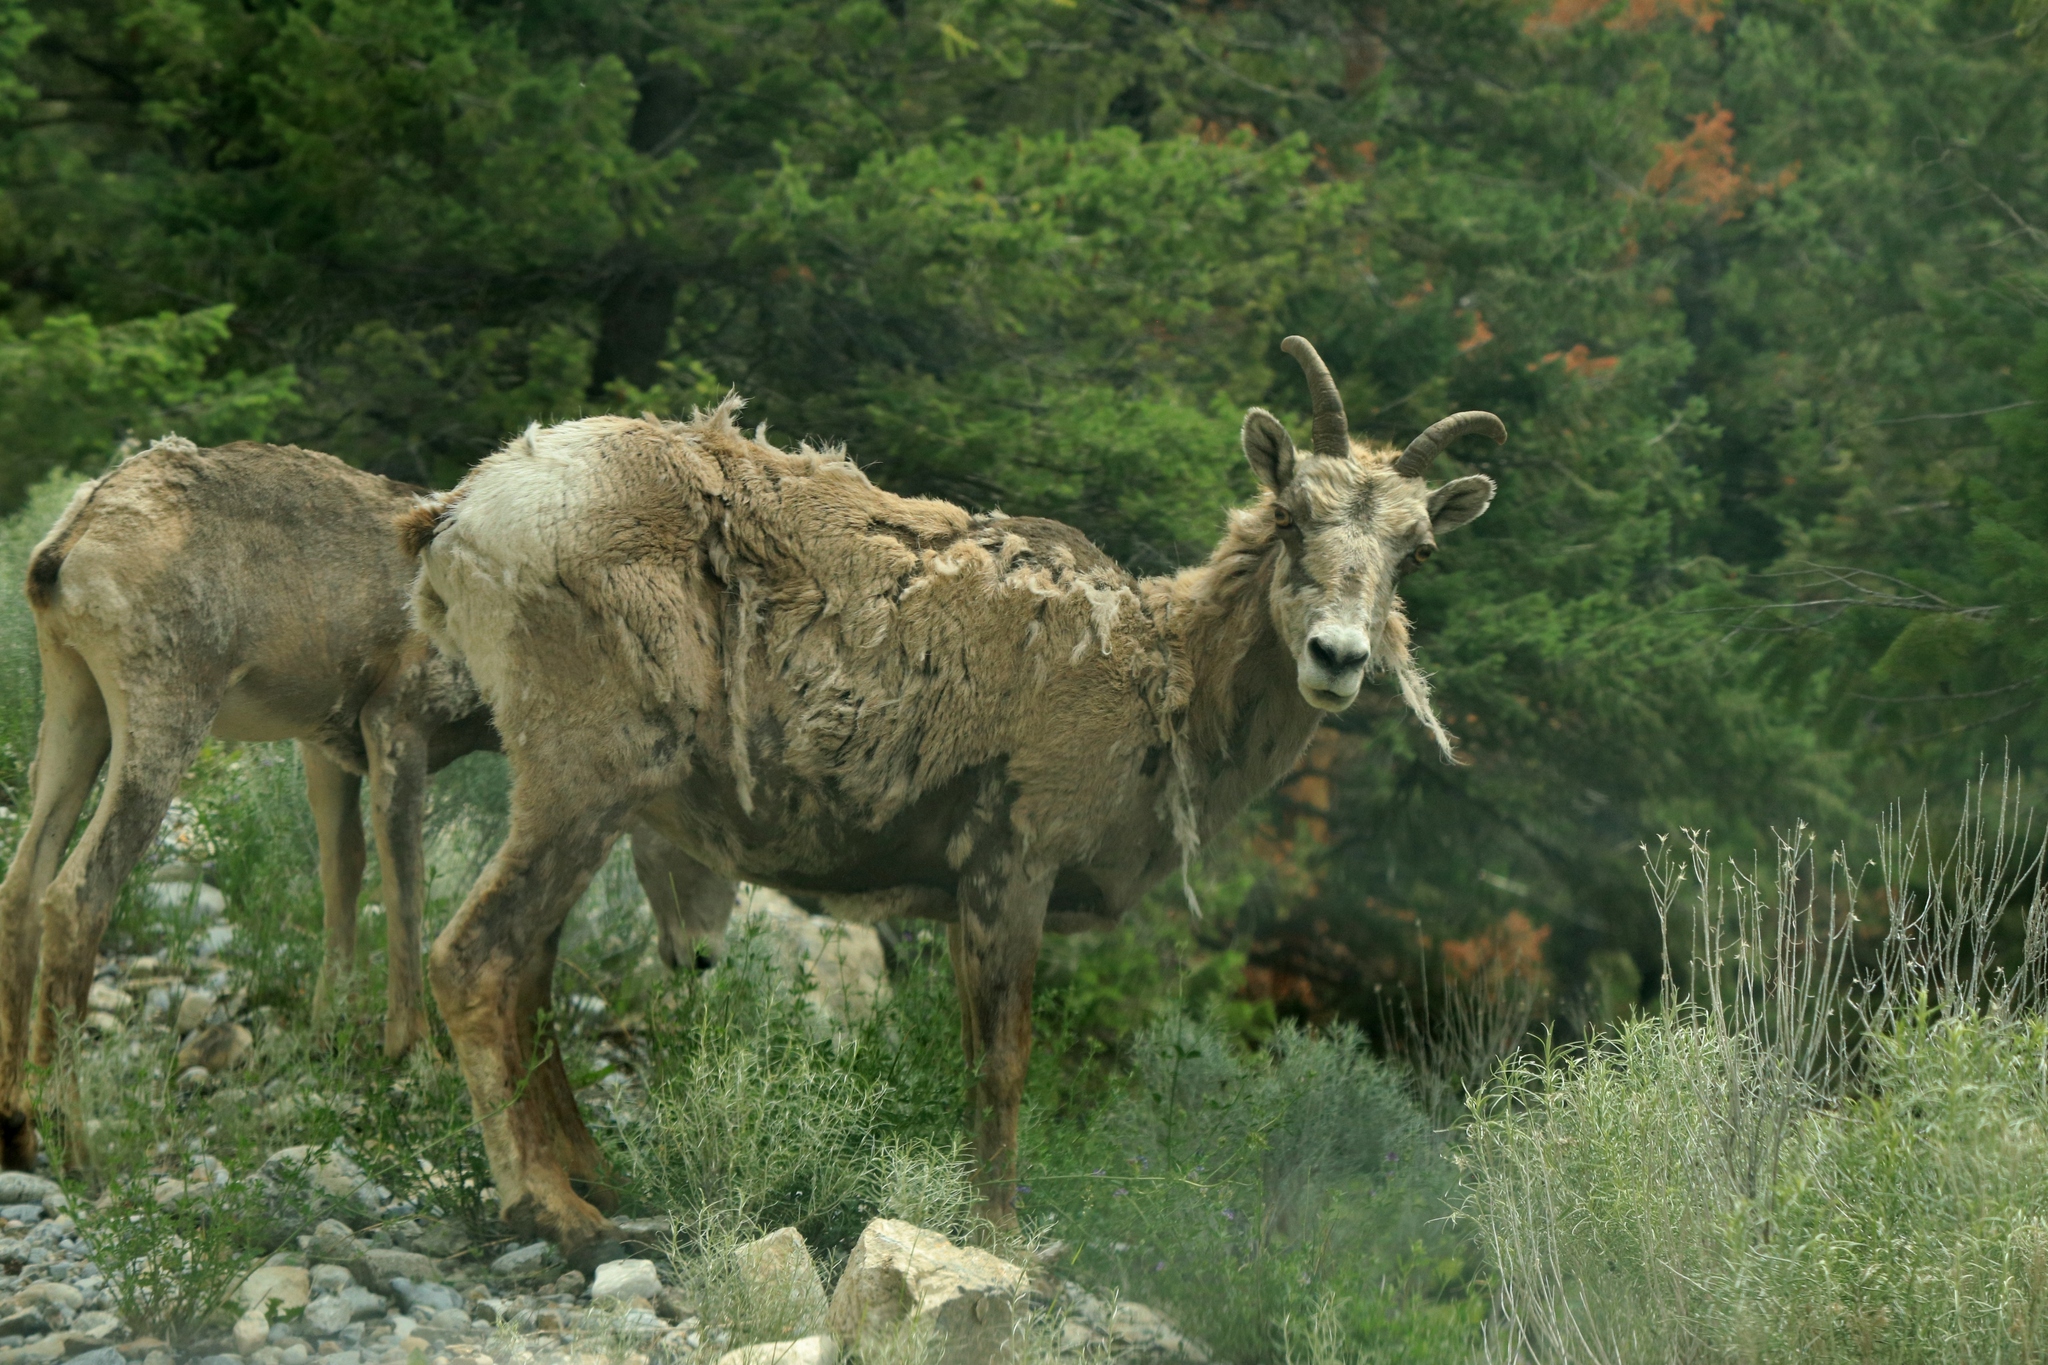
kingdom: Animalia
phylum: Chordata
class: Mammalia
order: Artiodactyla
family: Bovidae
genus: Ovis
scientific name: Ovis canadensis
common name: Bighorn sheep
